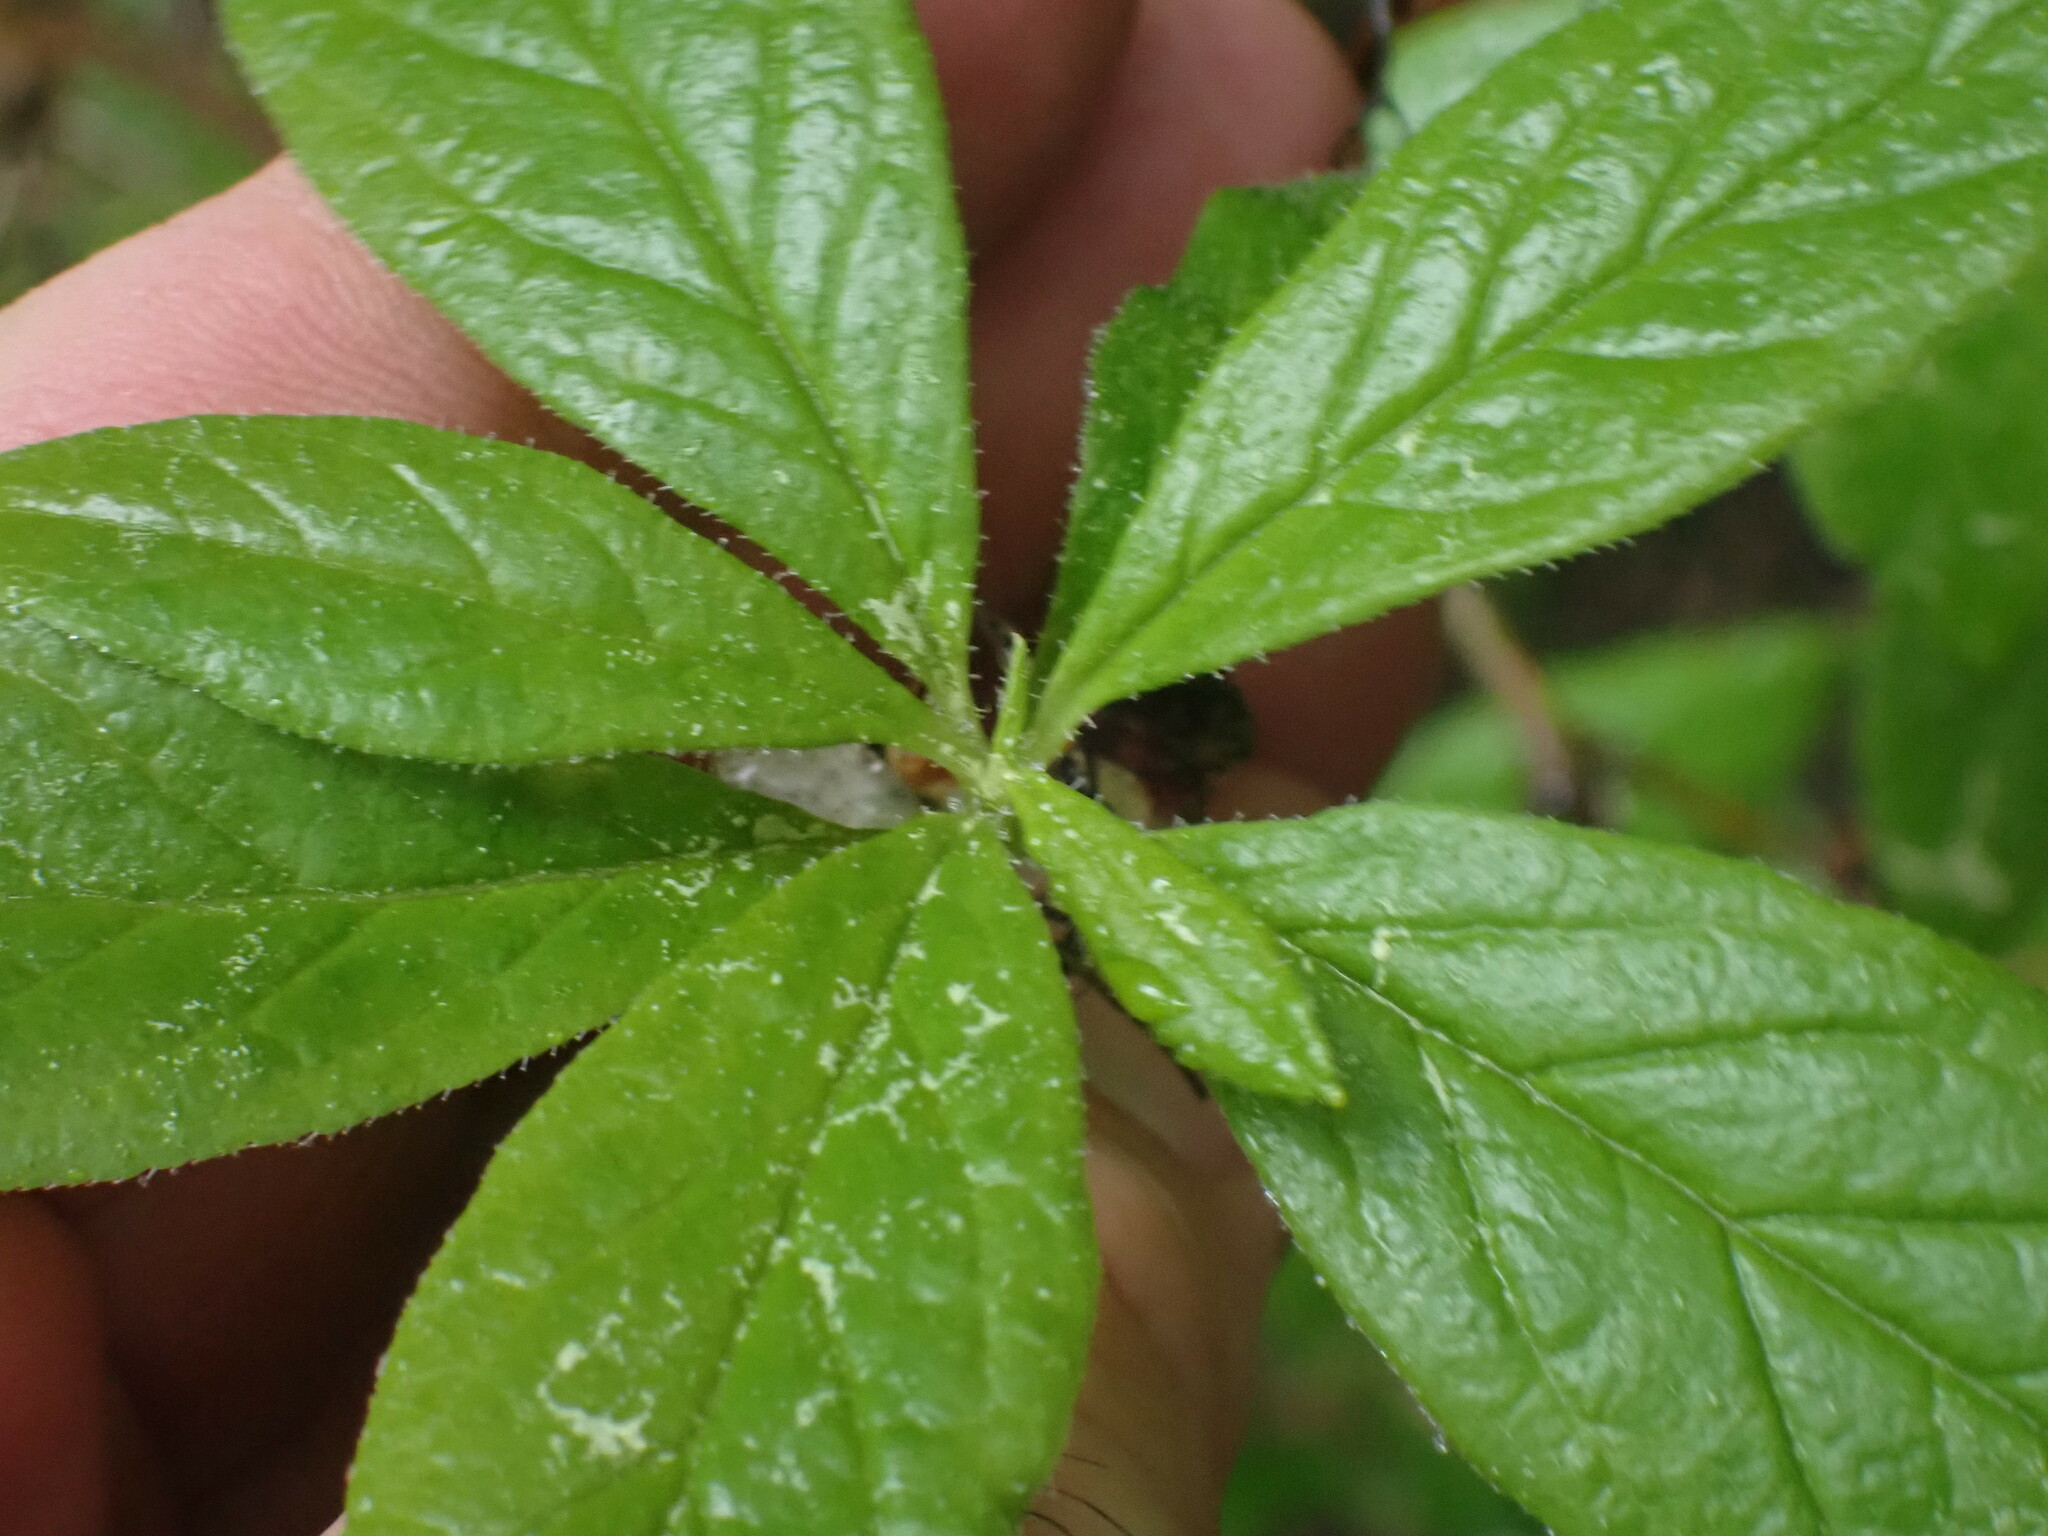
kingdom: Plantae
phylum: Tracheophyta
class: Magnoliopsida
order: Ericales
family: Ericaceae
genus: Rhododendron
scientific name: Rhododendron albiflorum
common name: White rhododendron
